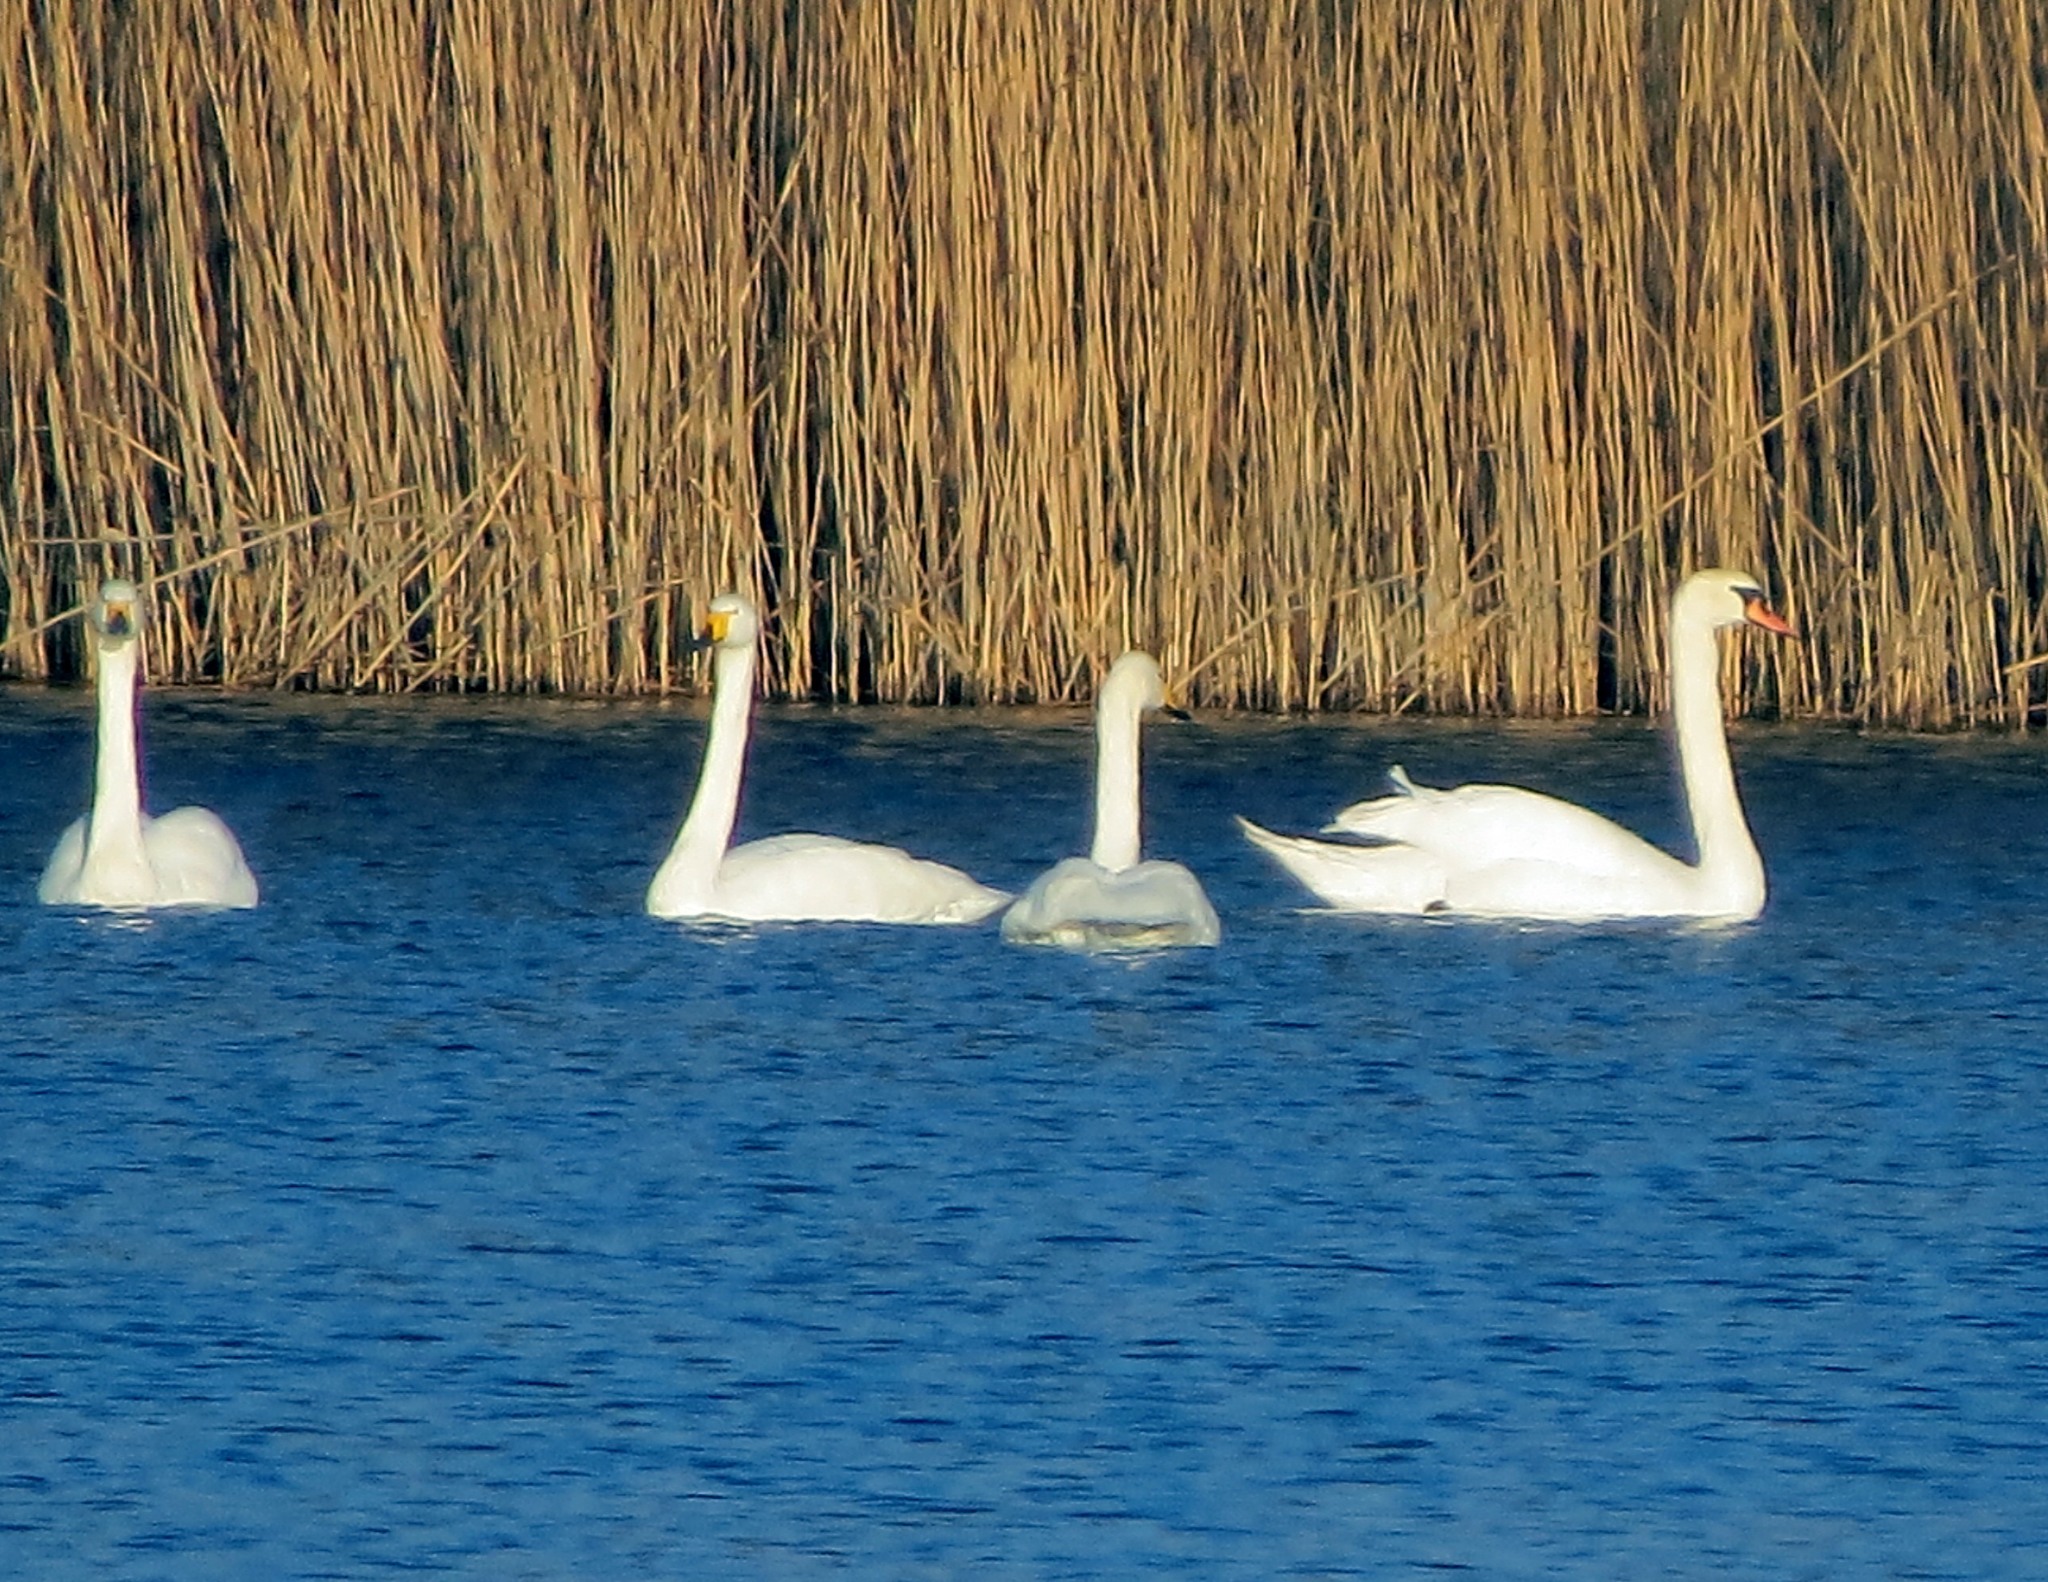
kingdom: Animalia
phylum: Chordata
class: Aves
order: Anseriformes
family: Anatidae
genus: Cygnus
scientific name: Cygnus olor
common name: Mute swan
